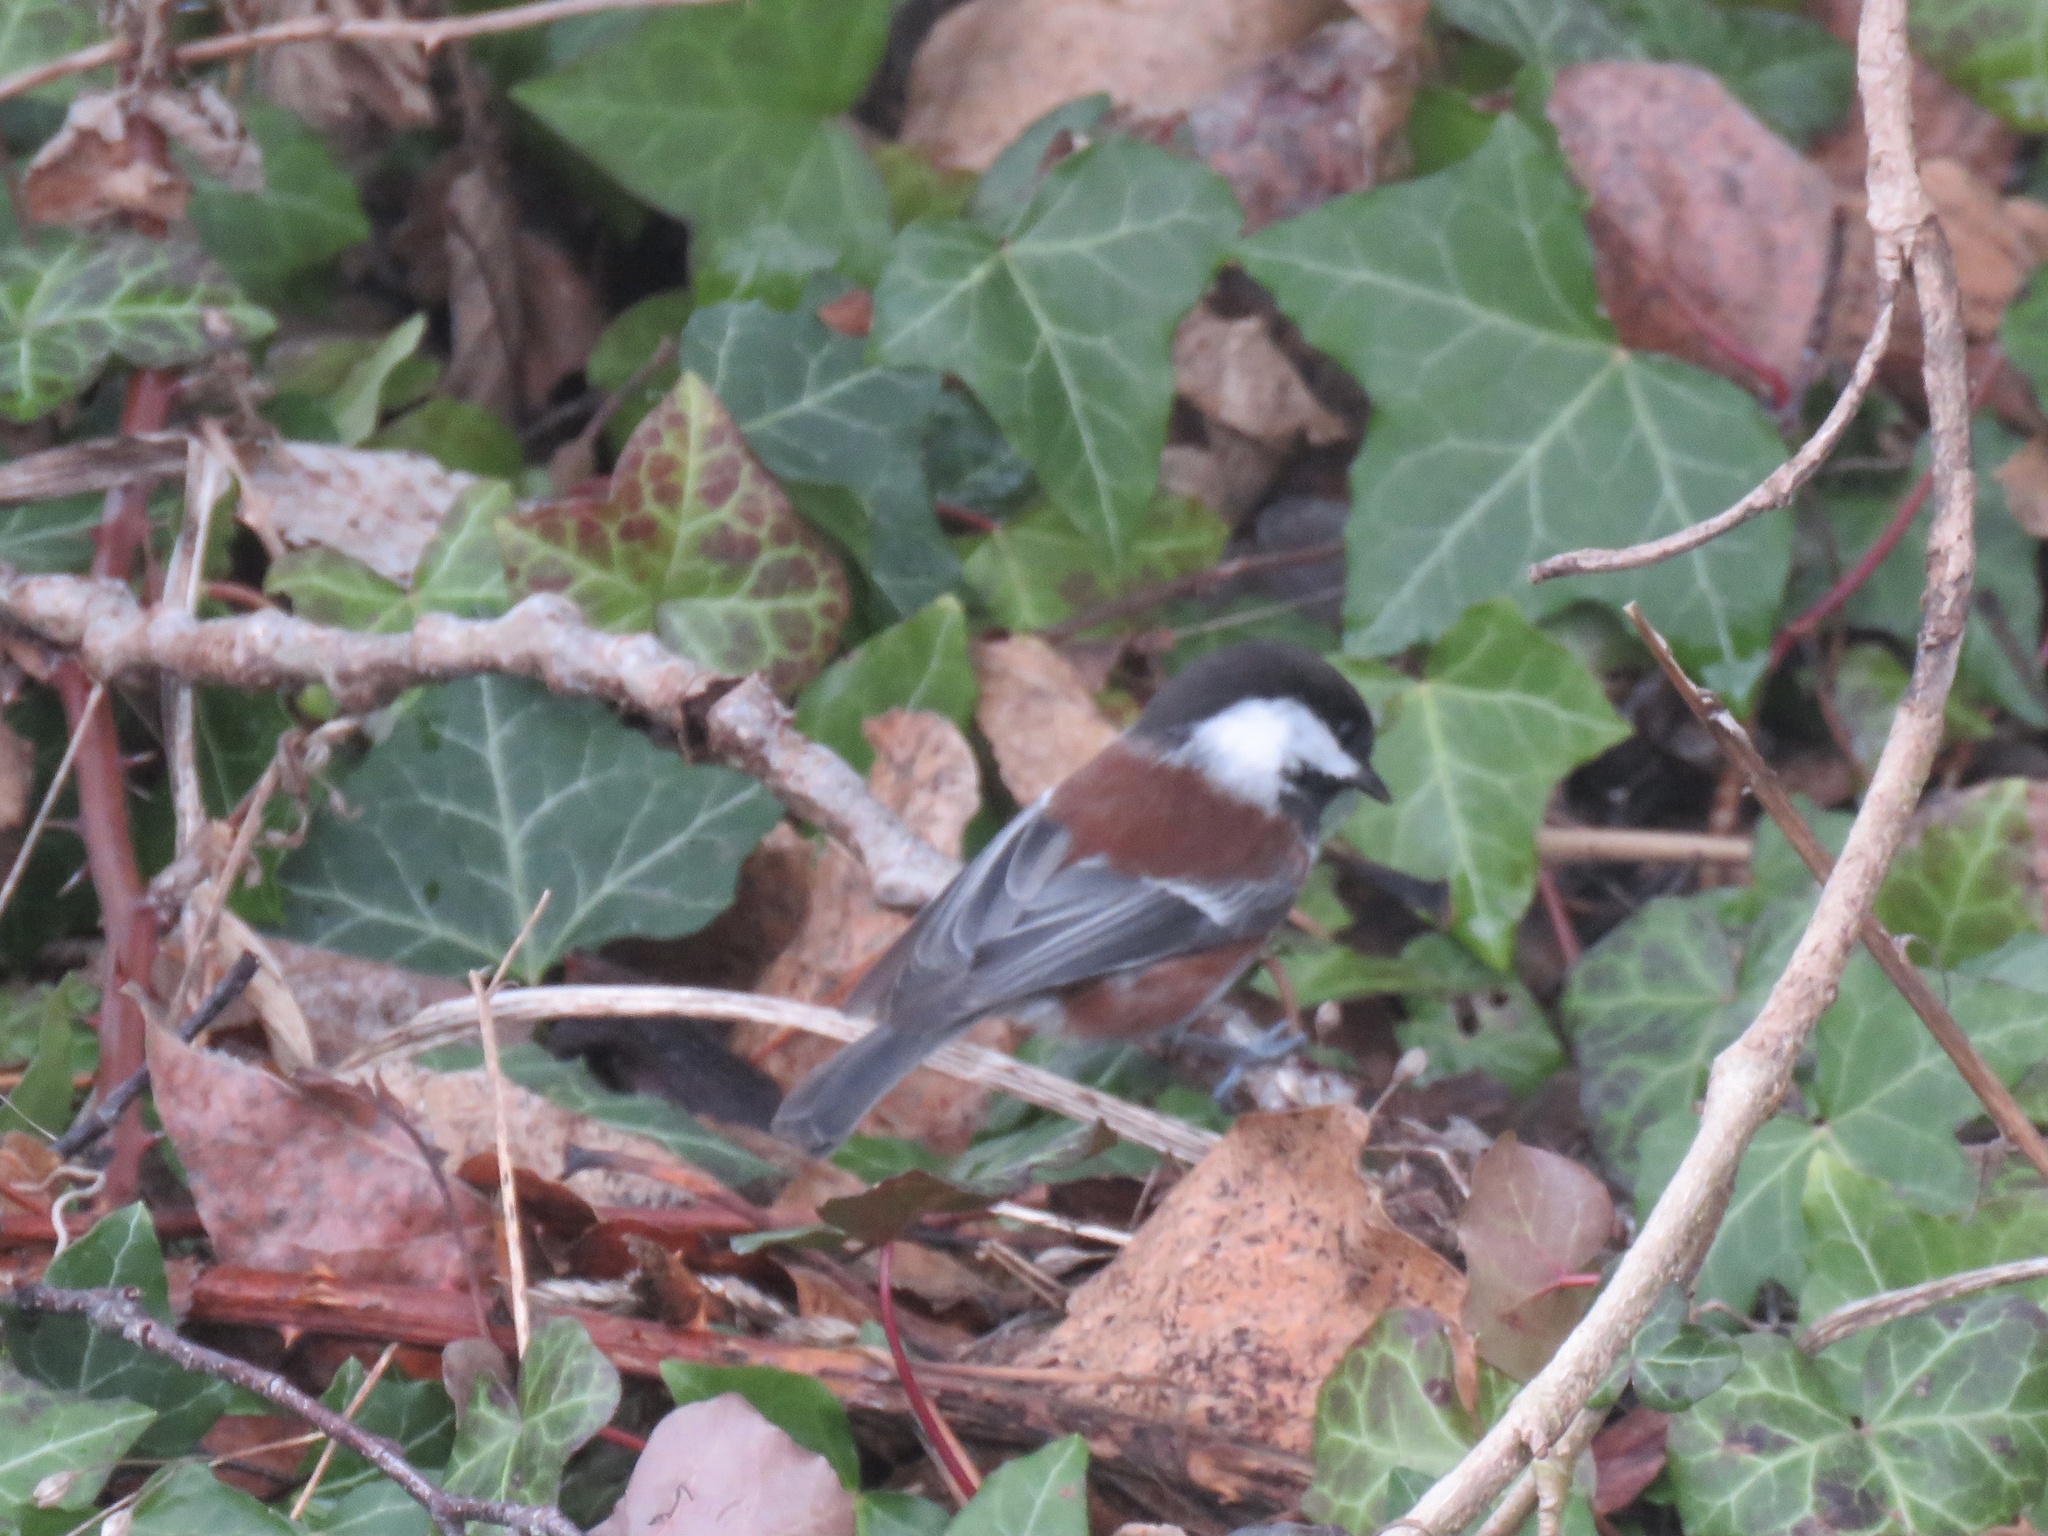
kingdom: Animalia
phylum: Chordata
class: Aves
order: Passeriformes
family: Paridae
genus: Poecile
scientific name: Poecile rufescens
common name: Chestnut-backed chickadee
